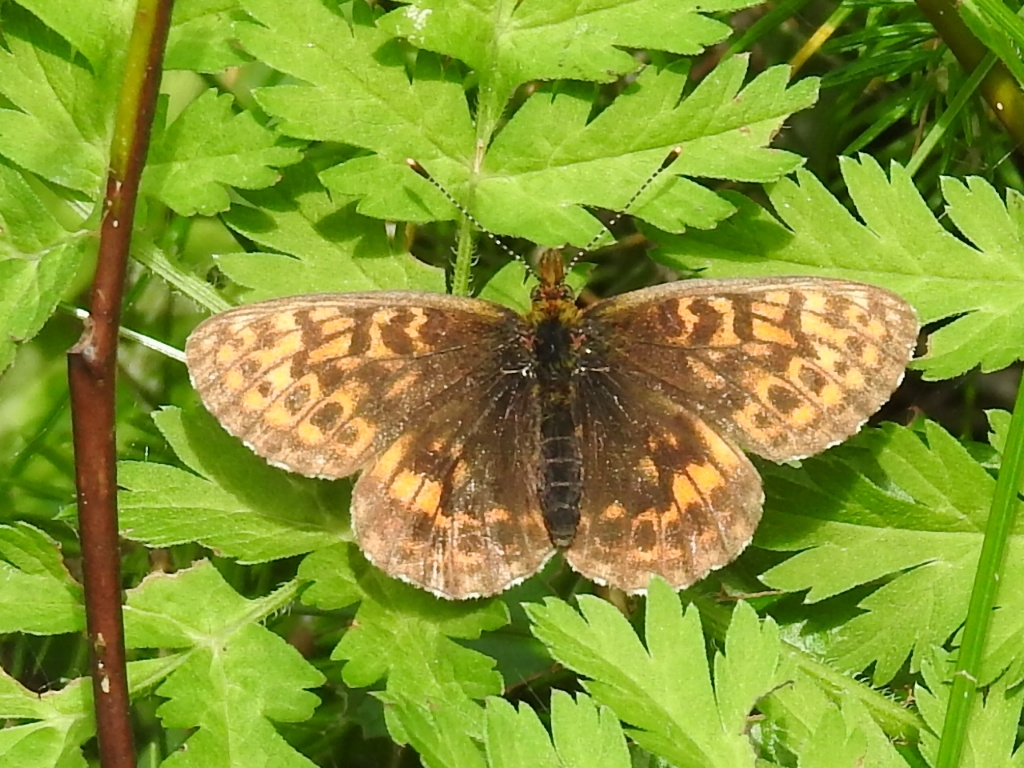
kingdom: Animalia
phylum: Arthropoda
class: Insecta
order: Lepidoptera
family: Nymphalidae
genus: Boloria
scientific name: Boloria thore
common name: Thor's fritillary
